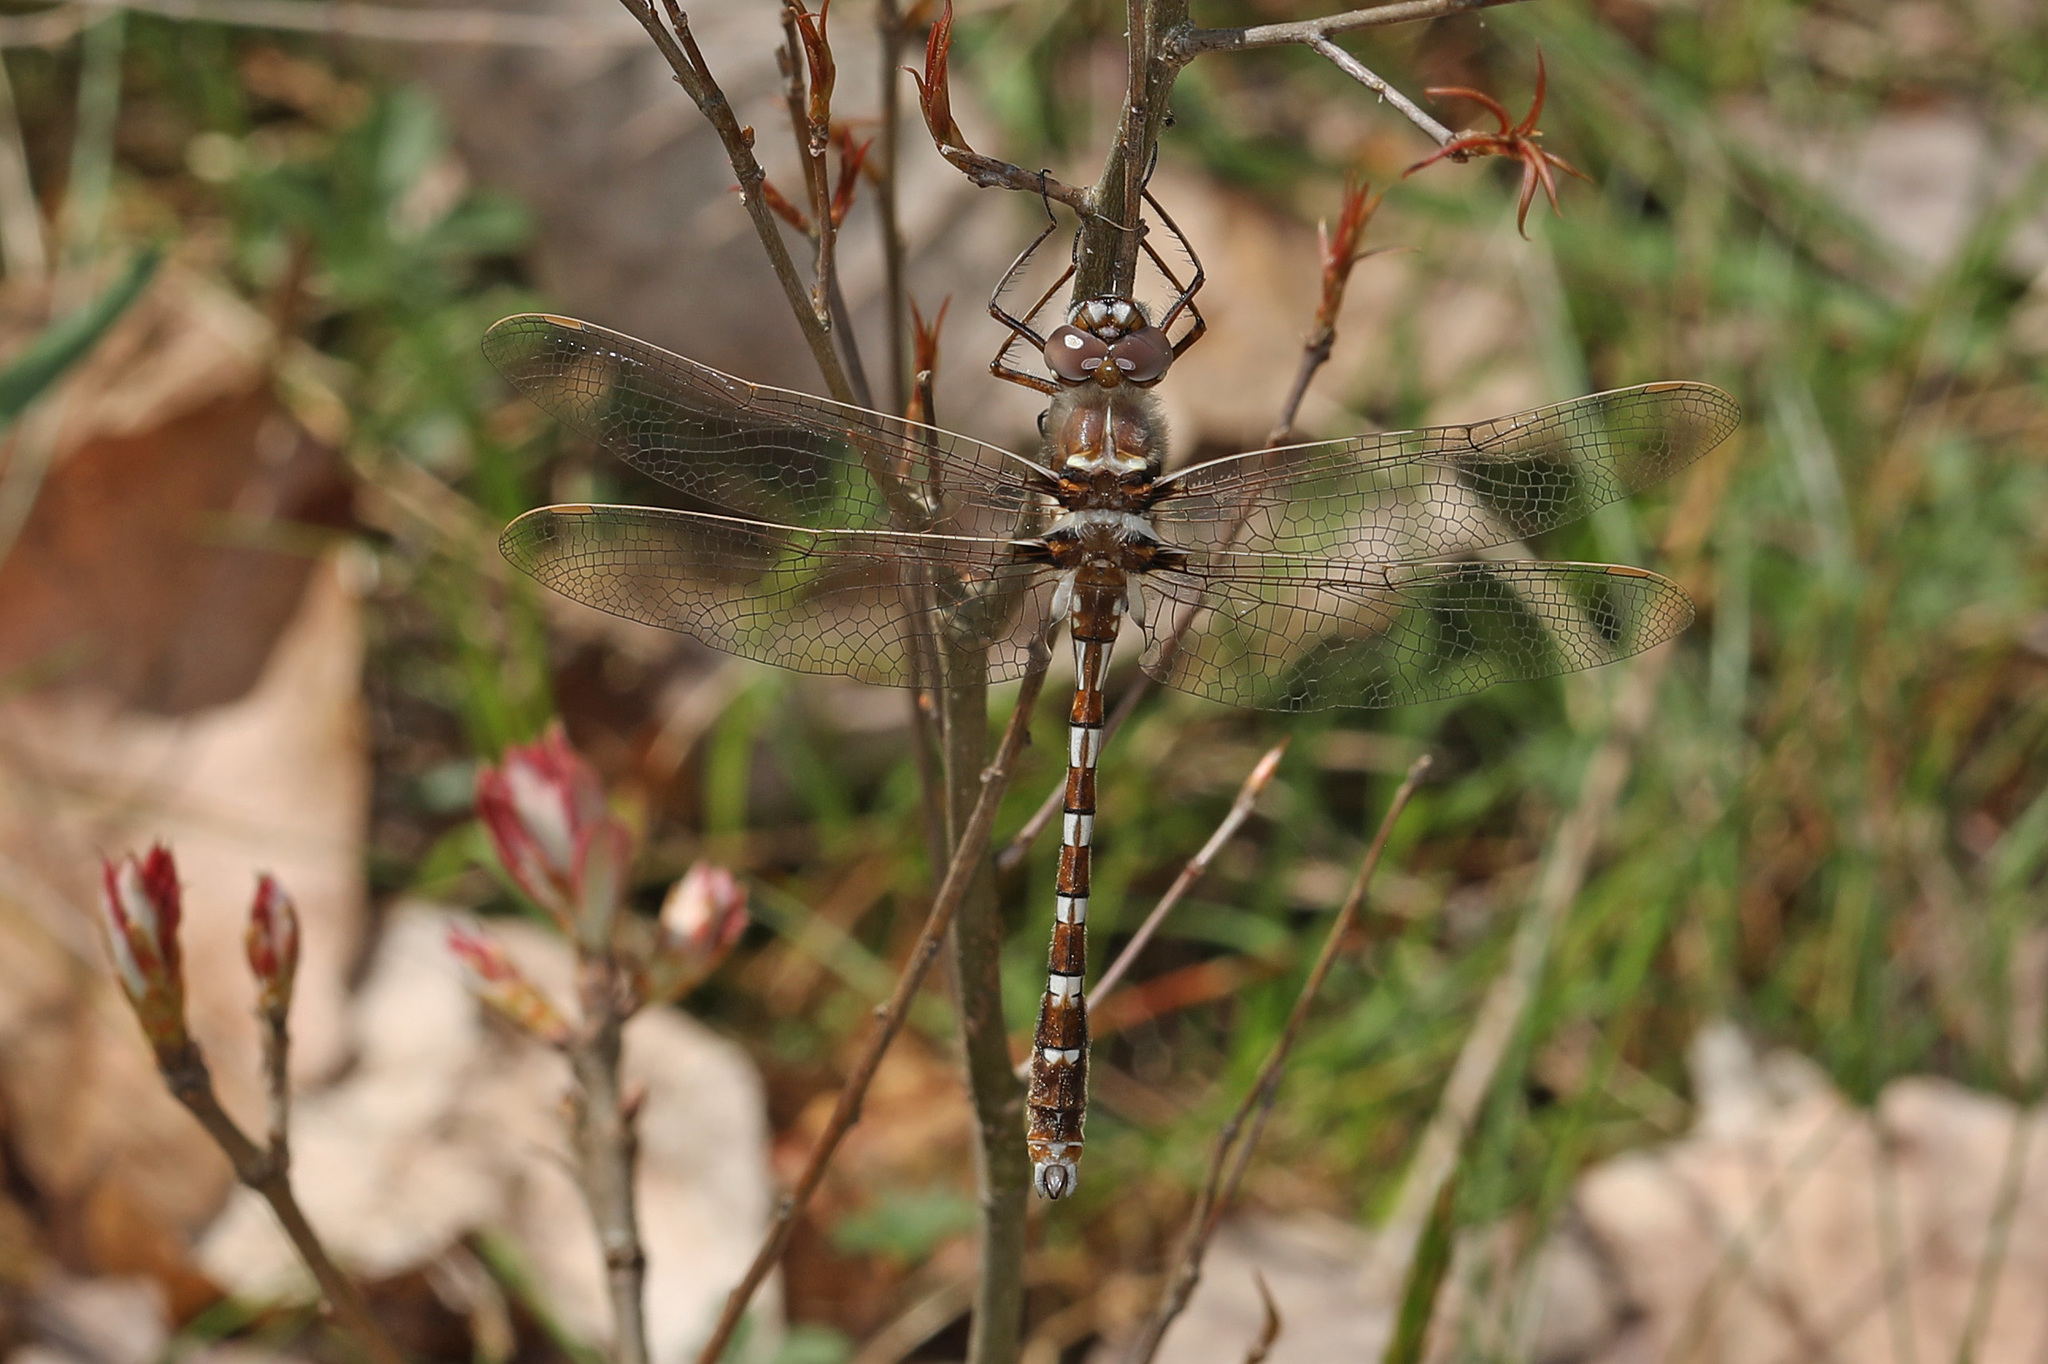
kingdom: Animalia
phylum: Arthropoda
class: Insecta
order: Odonata
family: Macromiidae
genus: Didymops
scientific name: Didymops transversa
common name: Stream cruiser
